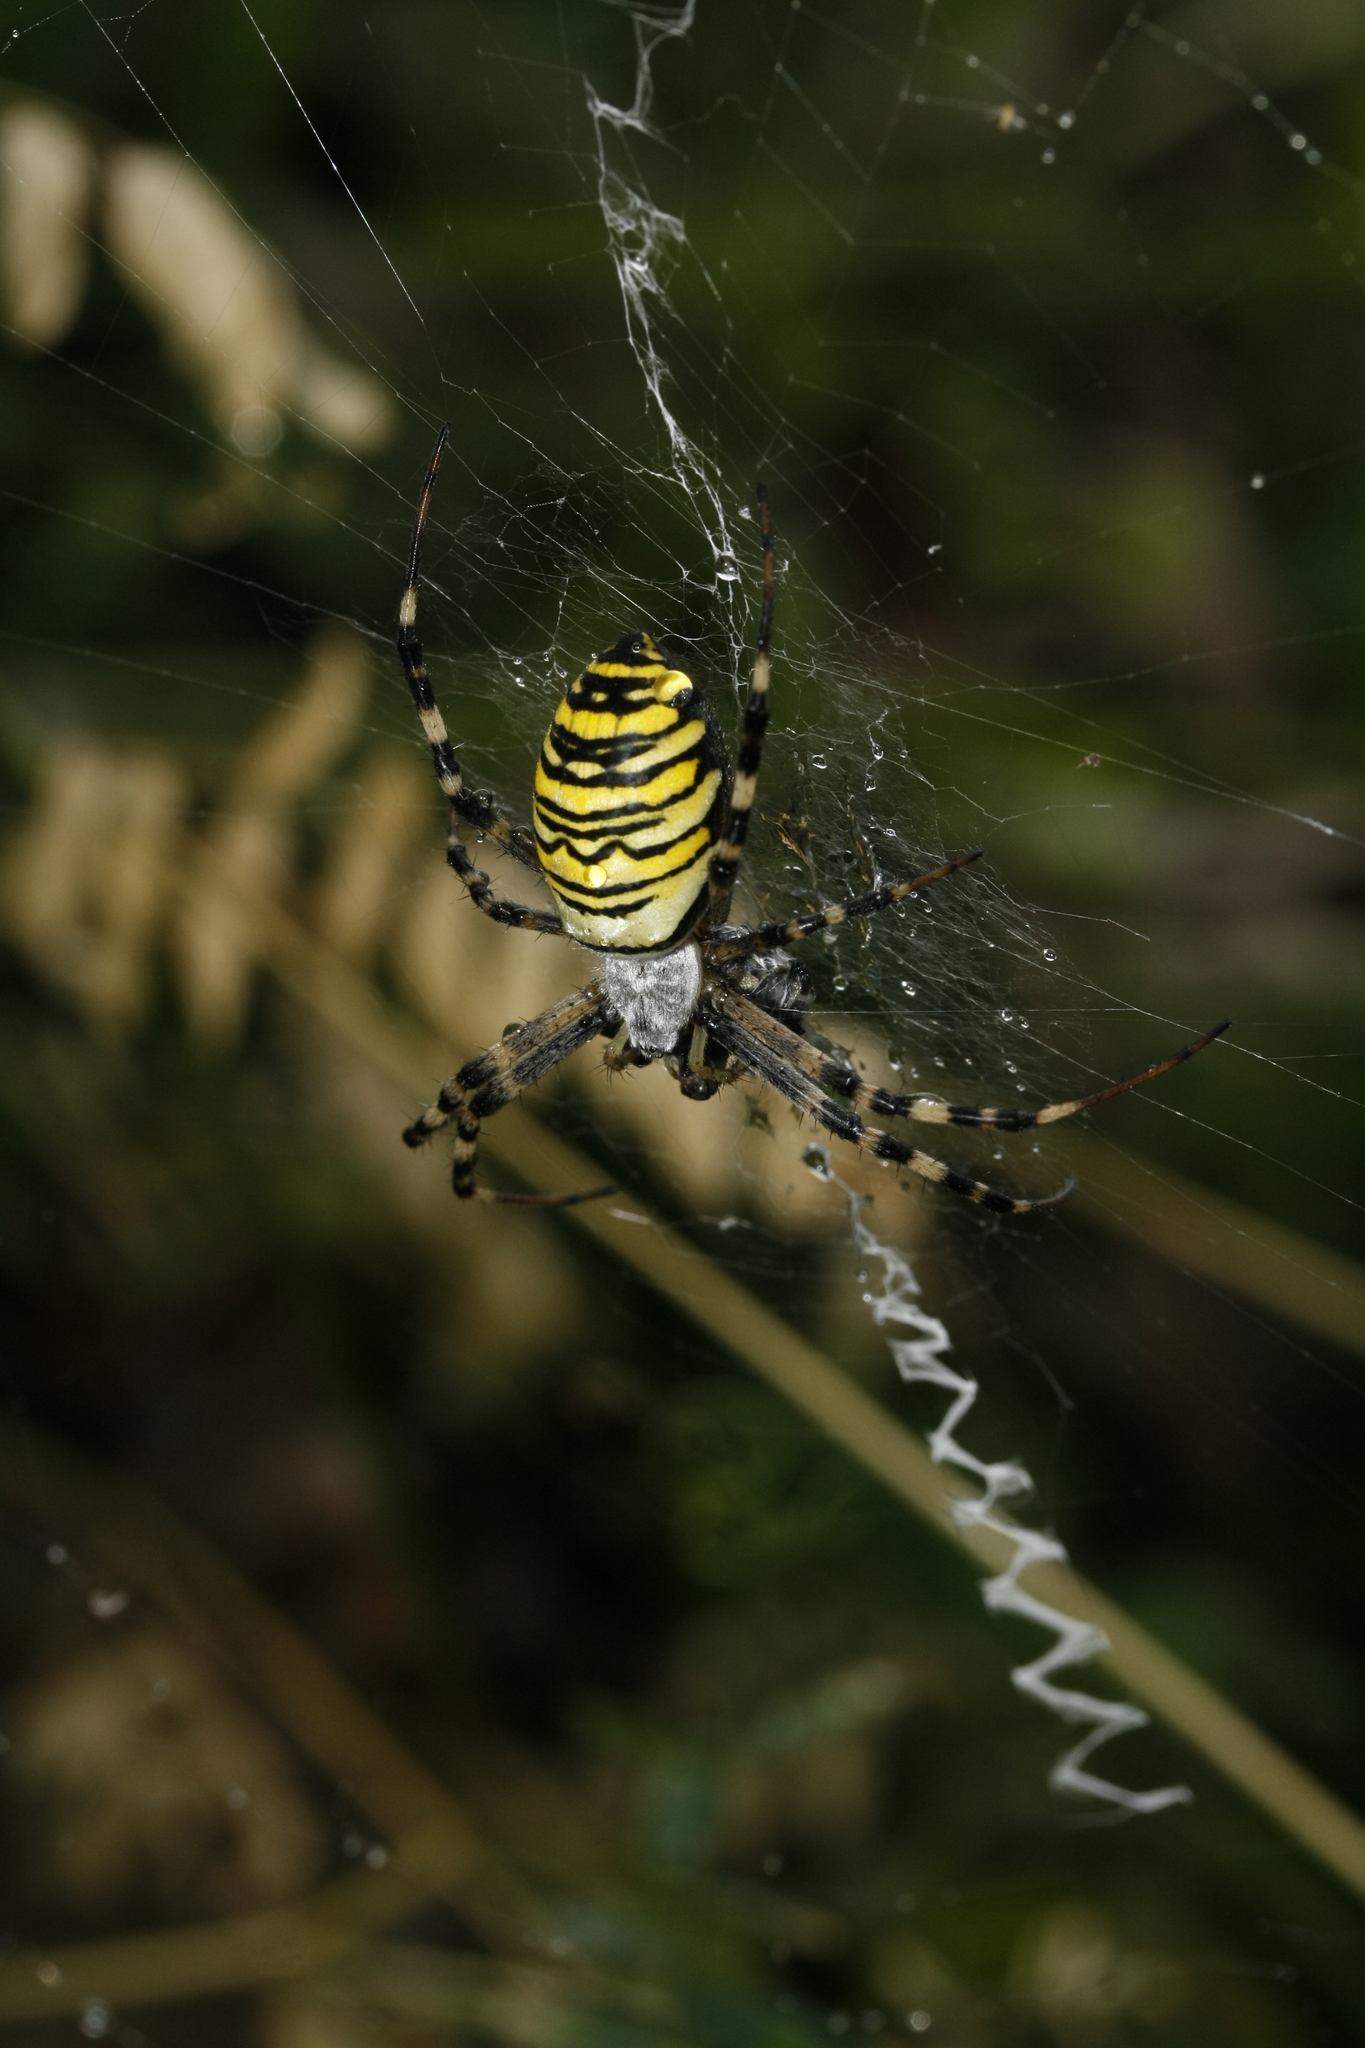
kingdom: Animalia
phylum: Arthropoda
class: Arachnida
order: Araneae
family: Araneidae
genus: Argiope
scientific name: Argiope bruennichi
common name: Wasp spider
